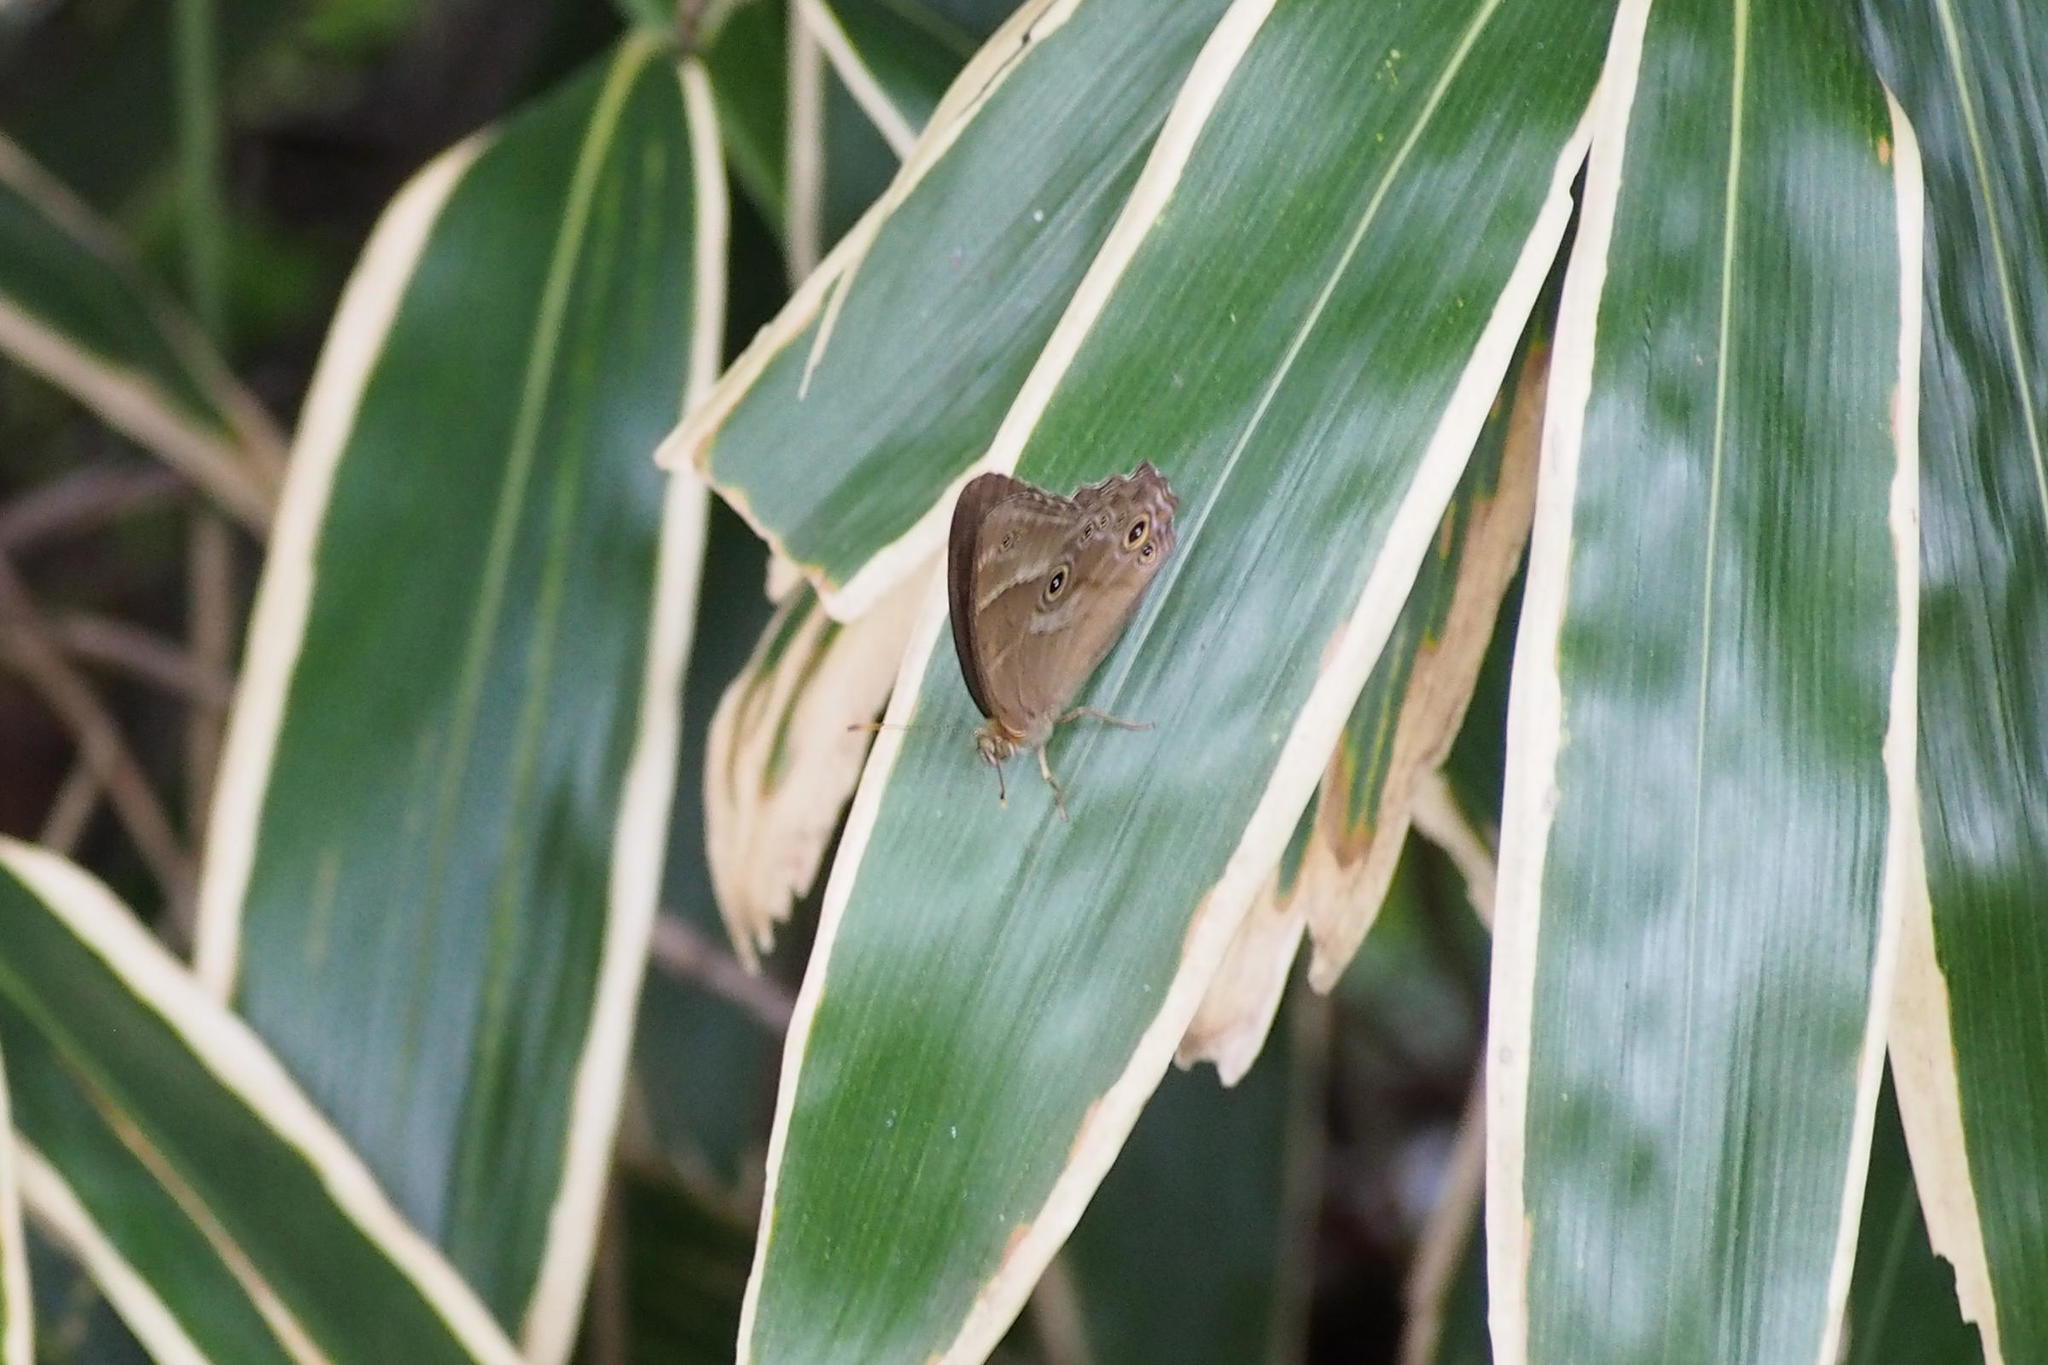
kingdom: Animalia
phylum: Arthropoda
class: Insecta
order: Lepidoptera
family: Nymphalidae
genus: Lethe
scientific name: Lethe sicelis
